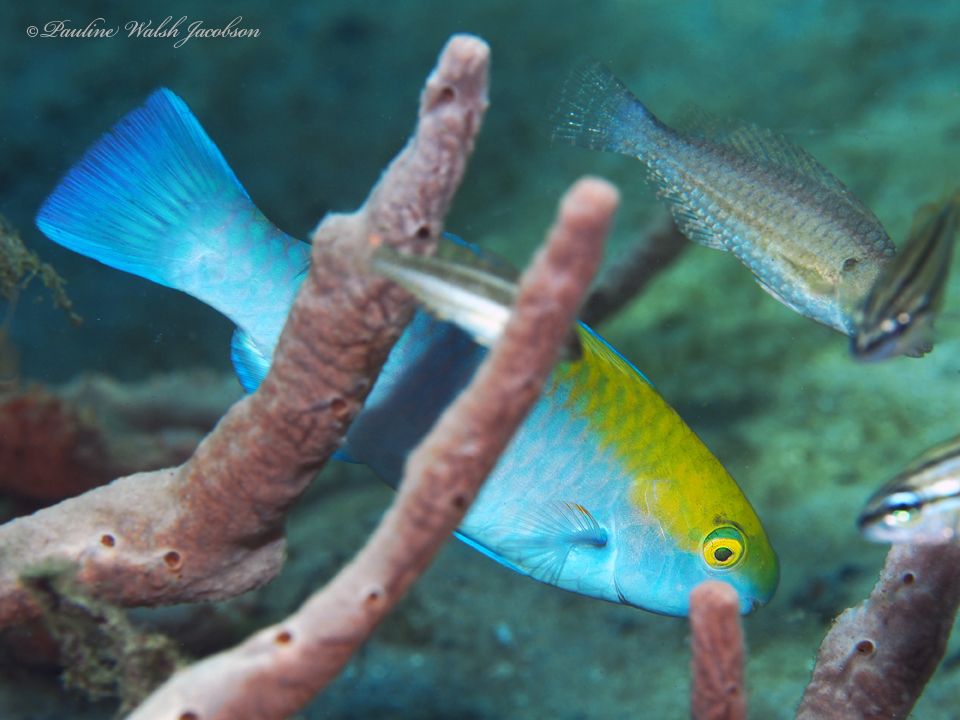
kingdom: Animalia
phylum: Chordata
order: Perciformes
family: Scaridae
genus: Scarus
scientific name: Scarus coeruleus
